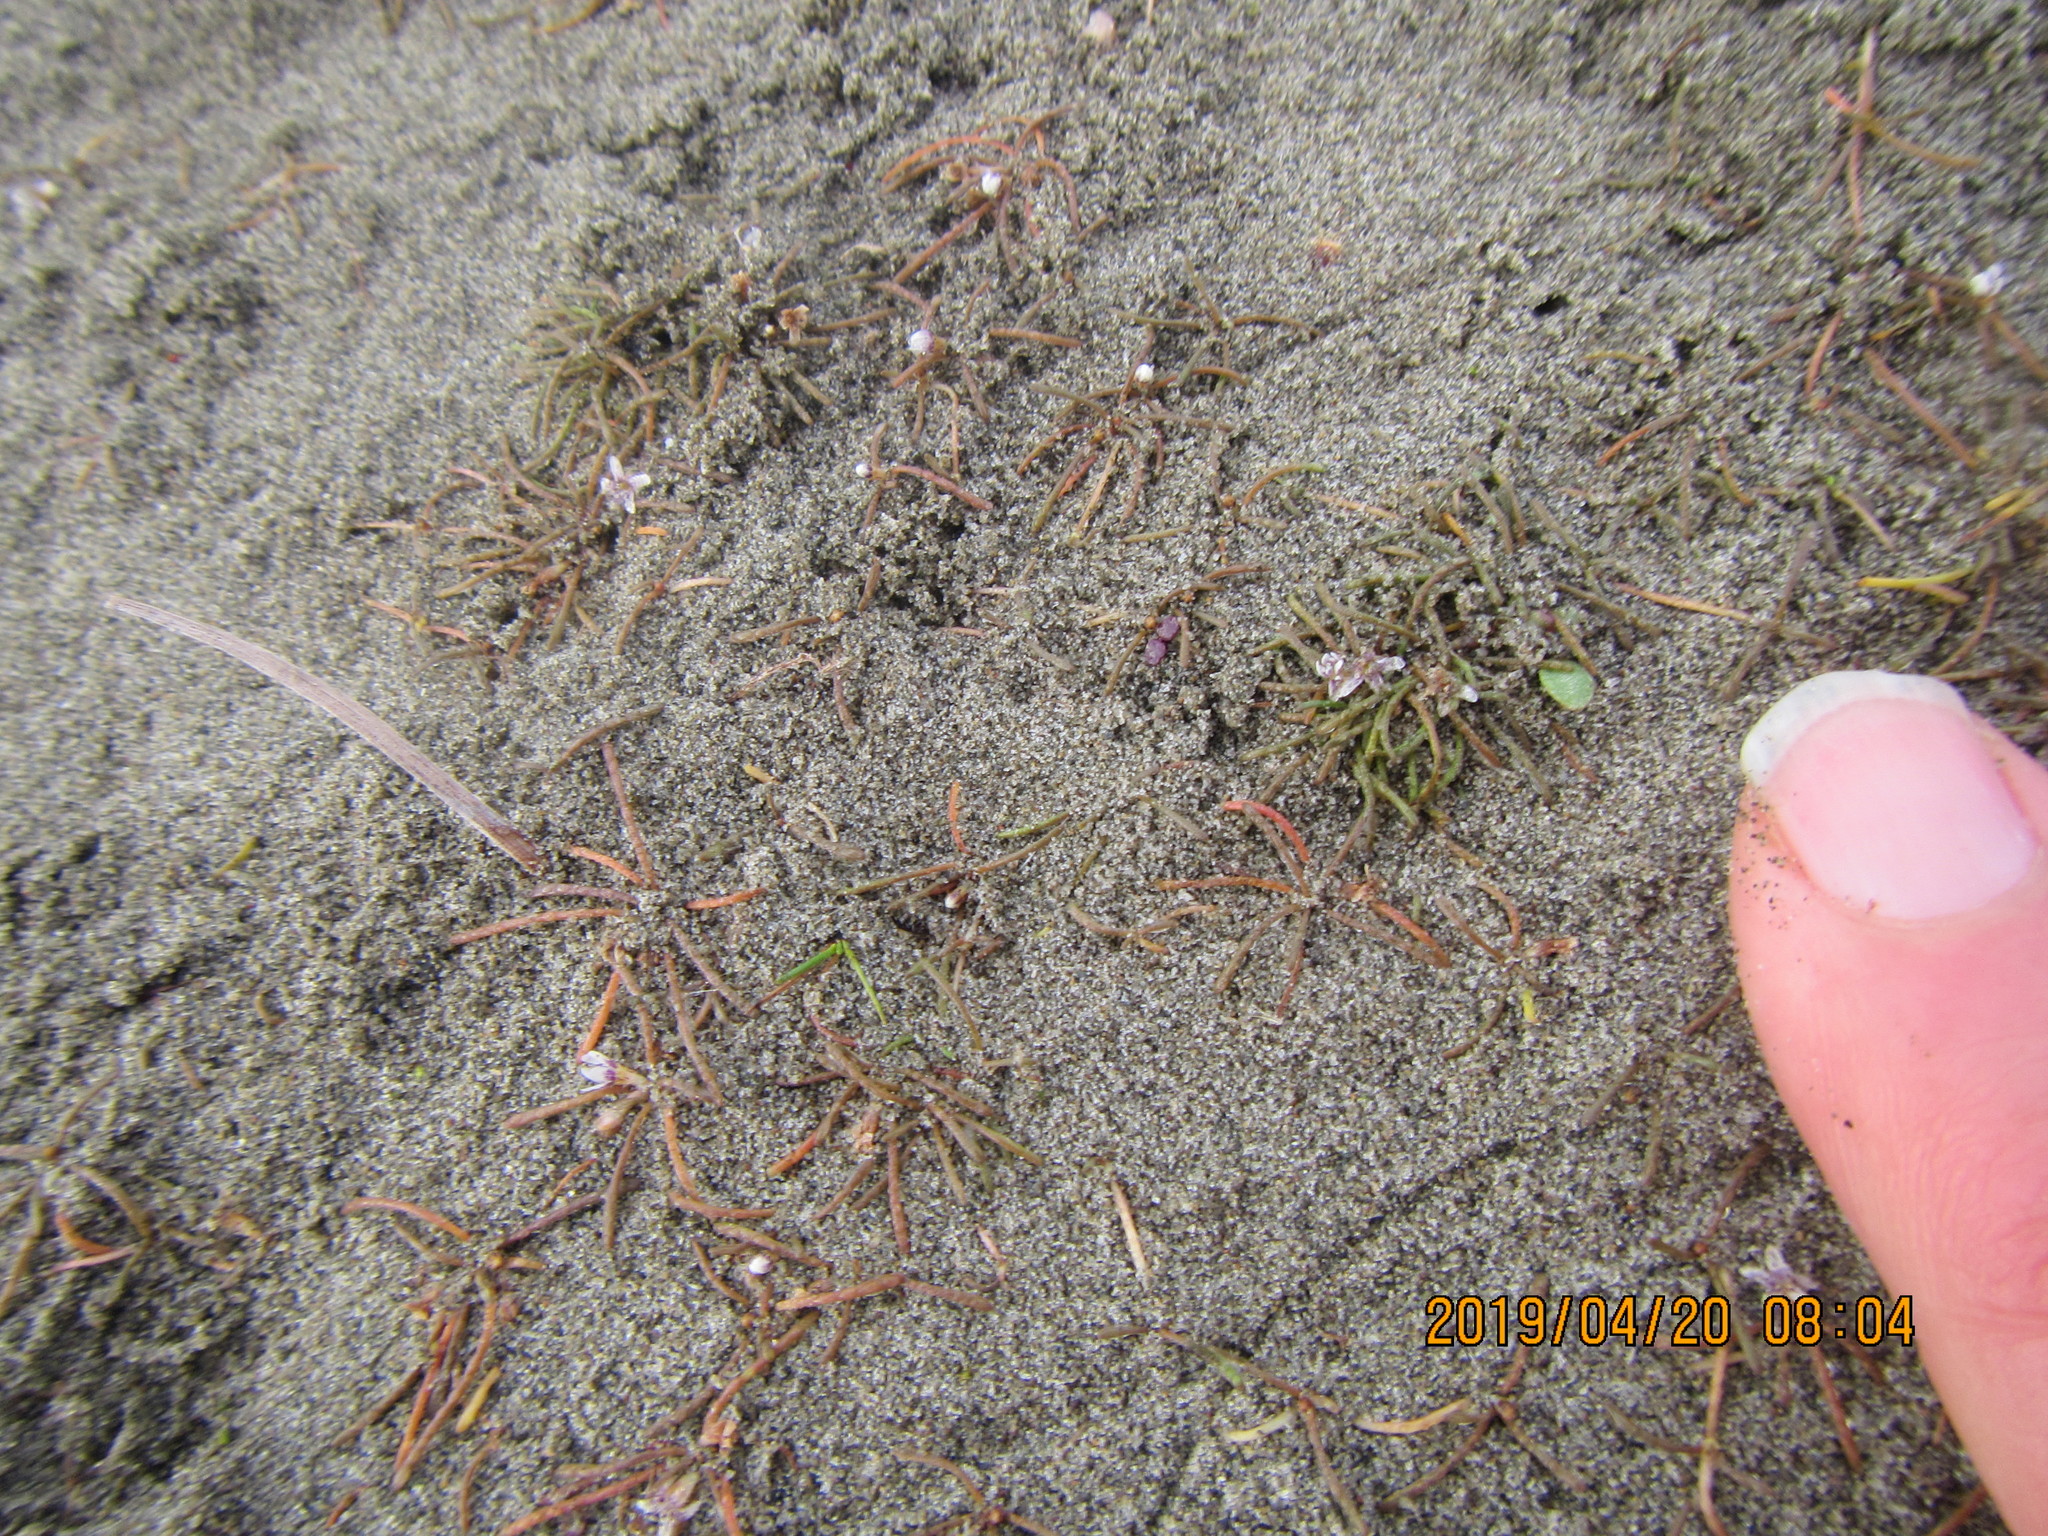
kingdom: Plantae
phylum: Tracheophyta
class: Magnoliopsida
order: Lamiales
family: Scrophulariaceae
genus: Limosella
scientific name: Limosella australis
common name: Welsh mudwort
